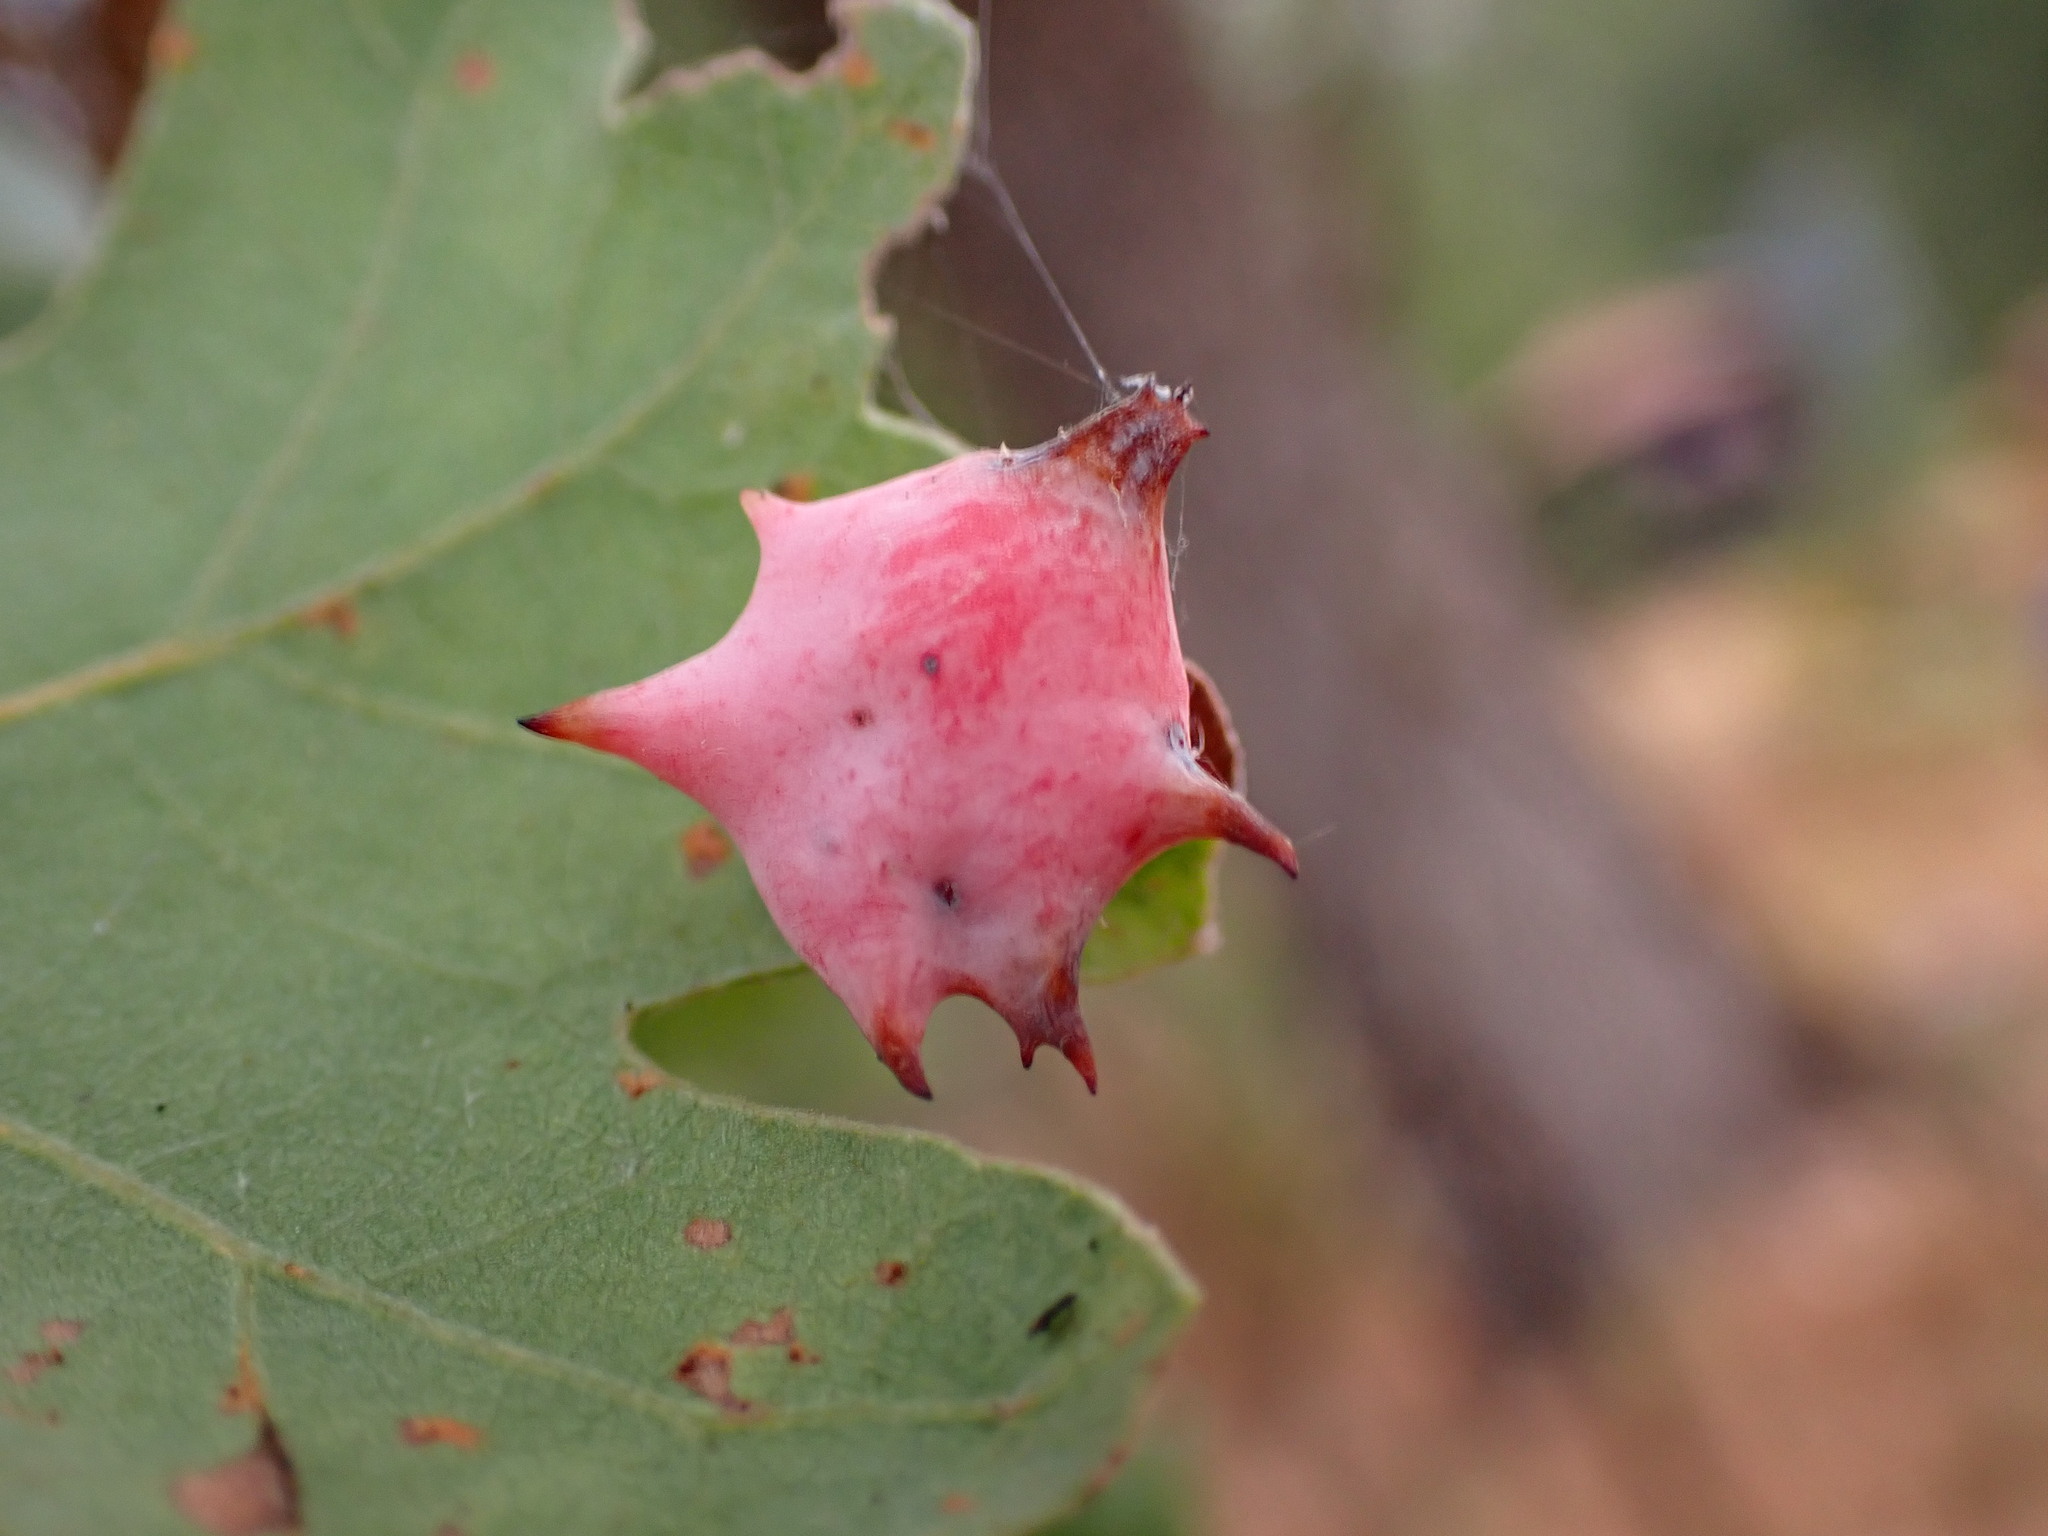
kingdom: Animalia
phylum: Arthropoda
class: Insecta
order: Hymenoptera
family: Cynipidae
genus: Cynips
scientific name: Cynips douglasi
